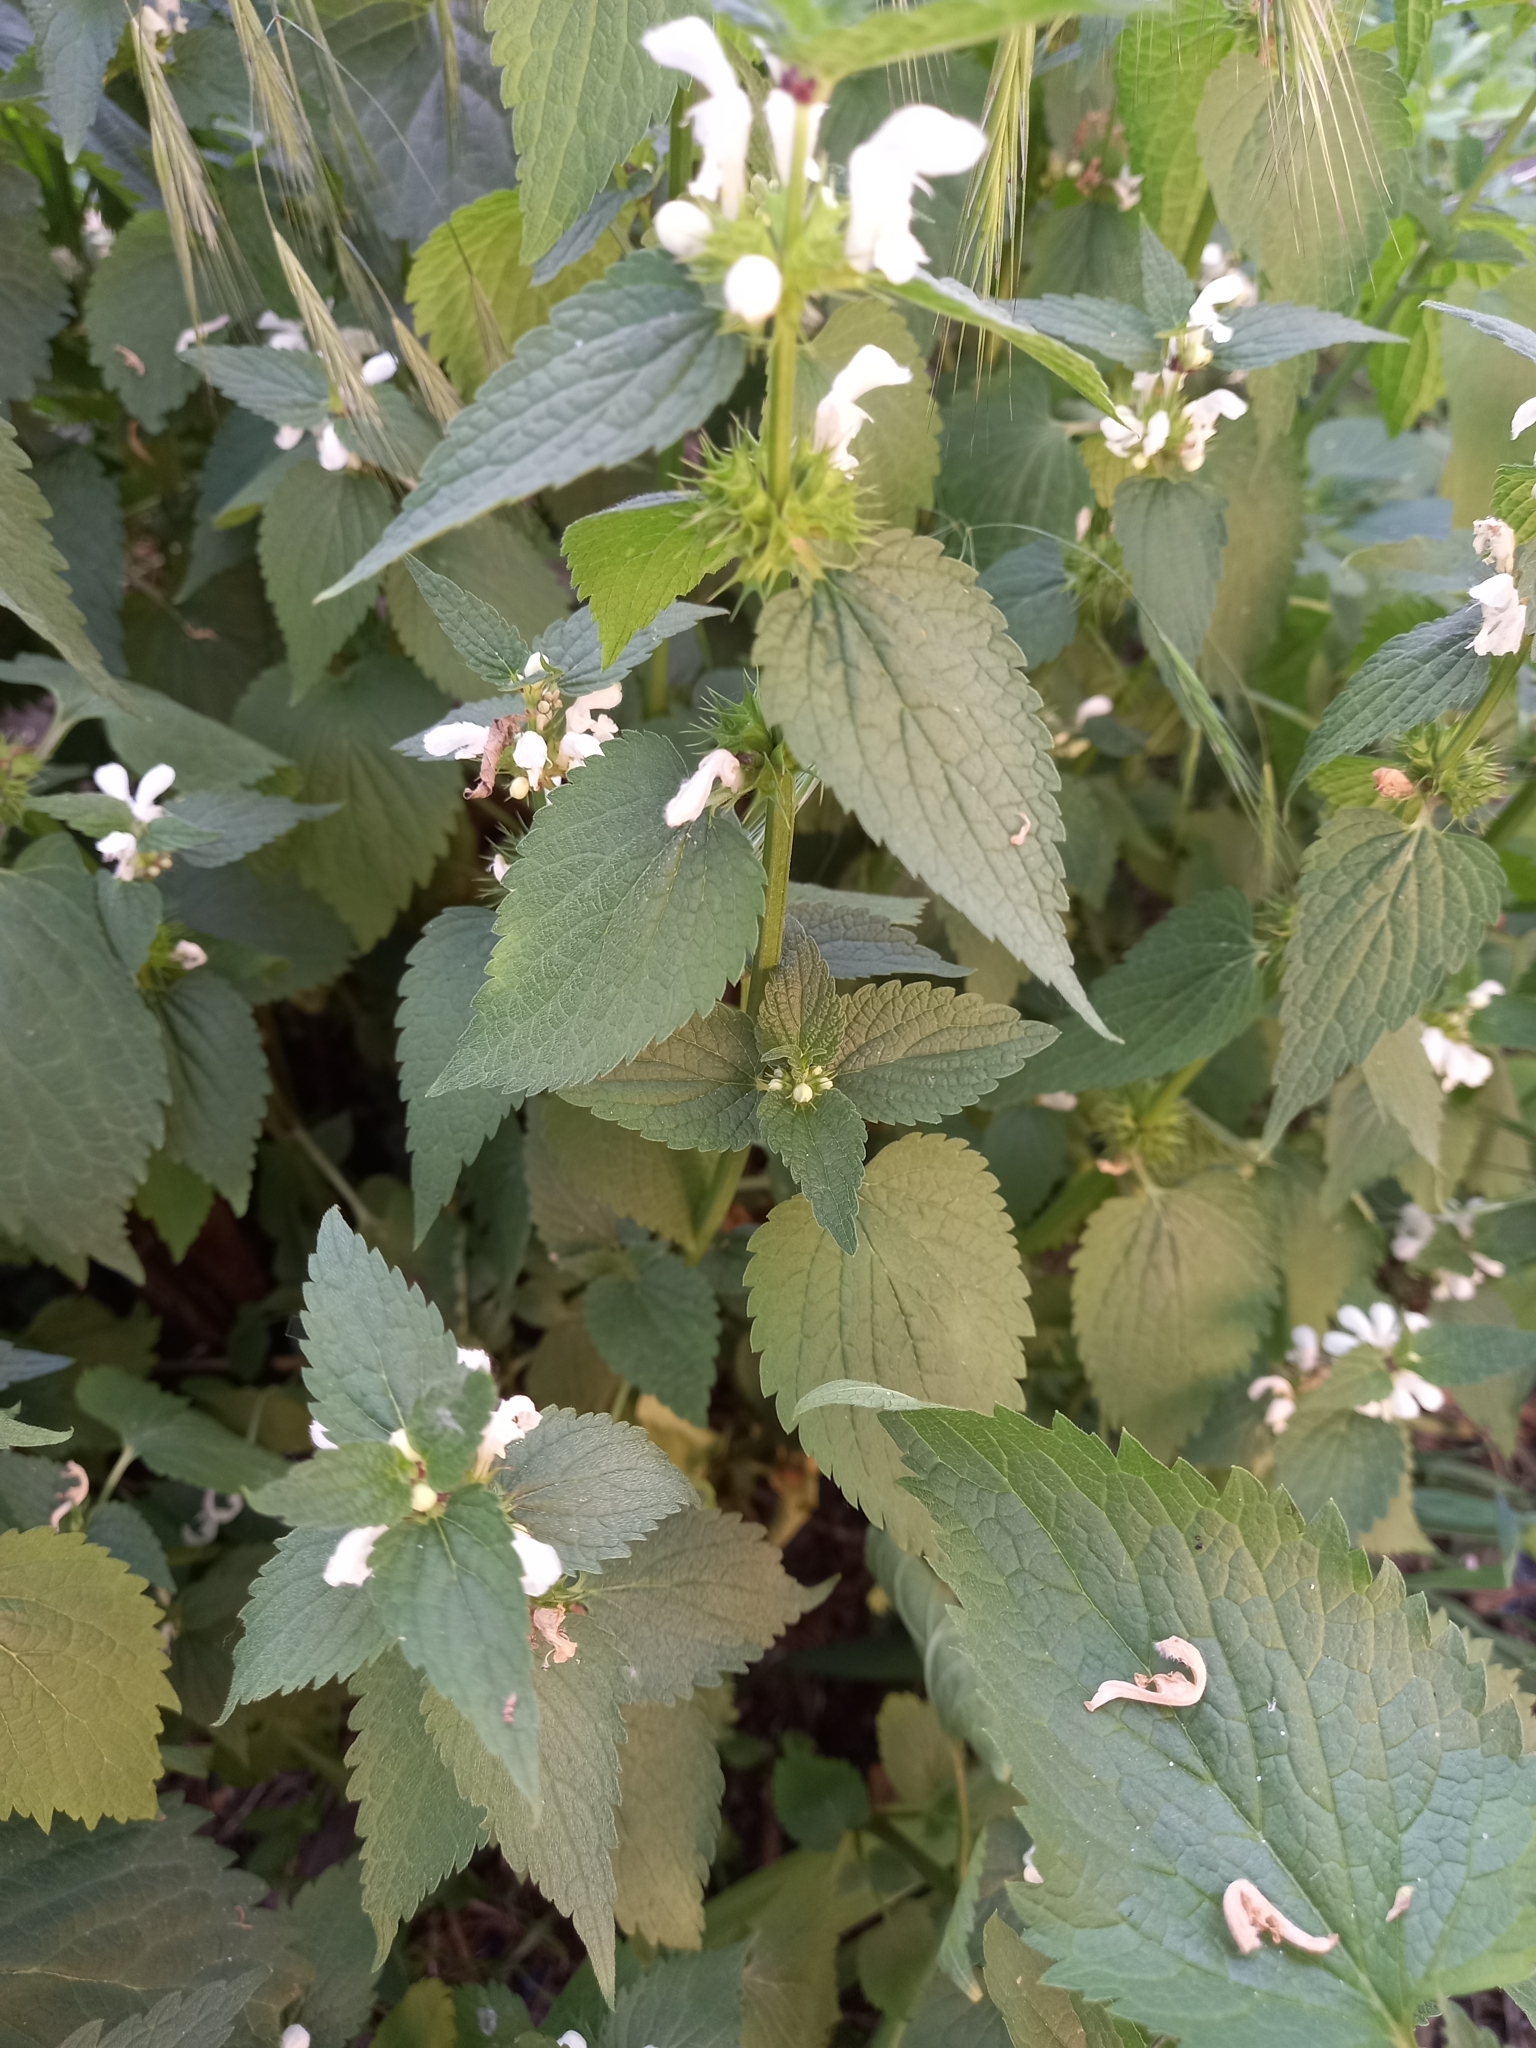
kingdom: Plantae
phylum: Tracheophyta
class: Magnoliopsida
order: Lamiales
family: Lamiaceae
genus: Lamium
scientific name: Lamium album
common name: White dead-nettle
